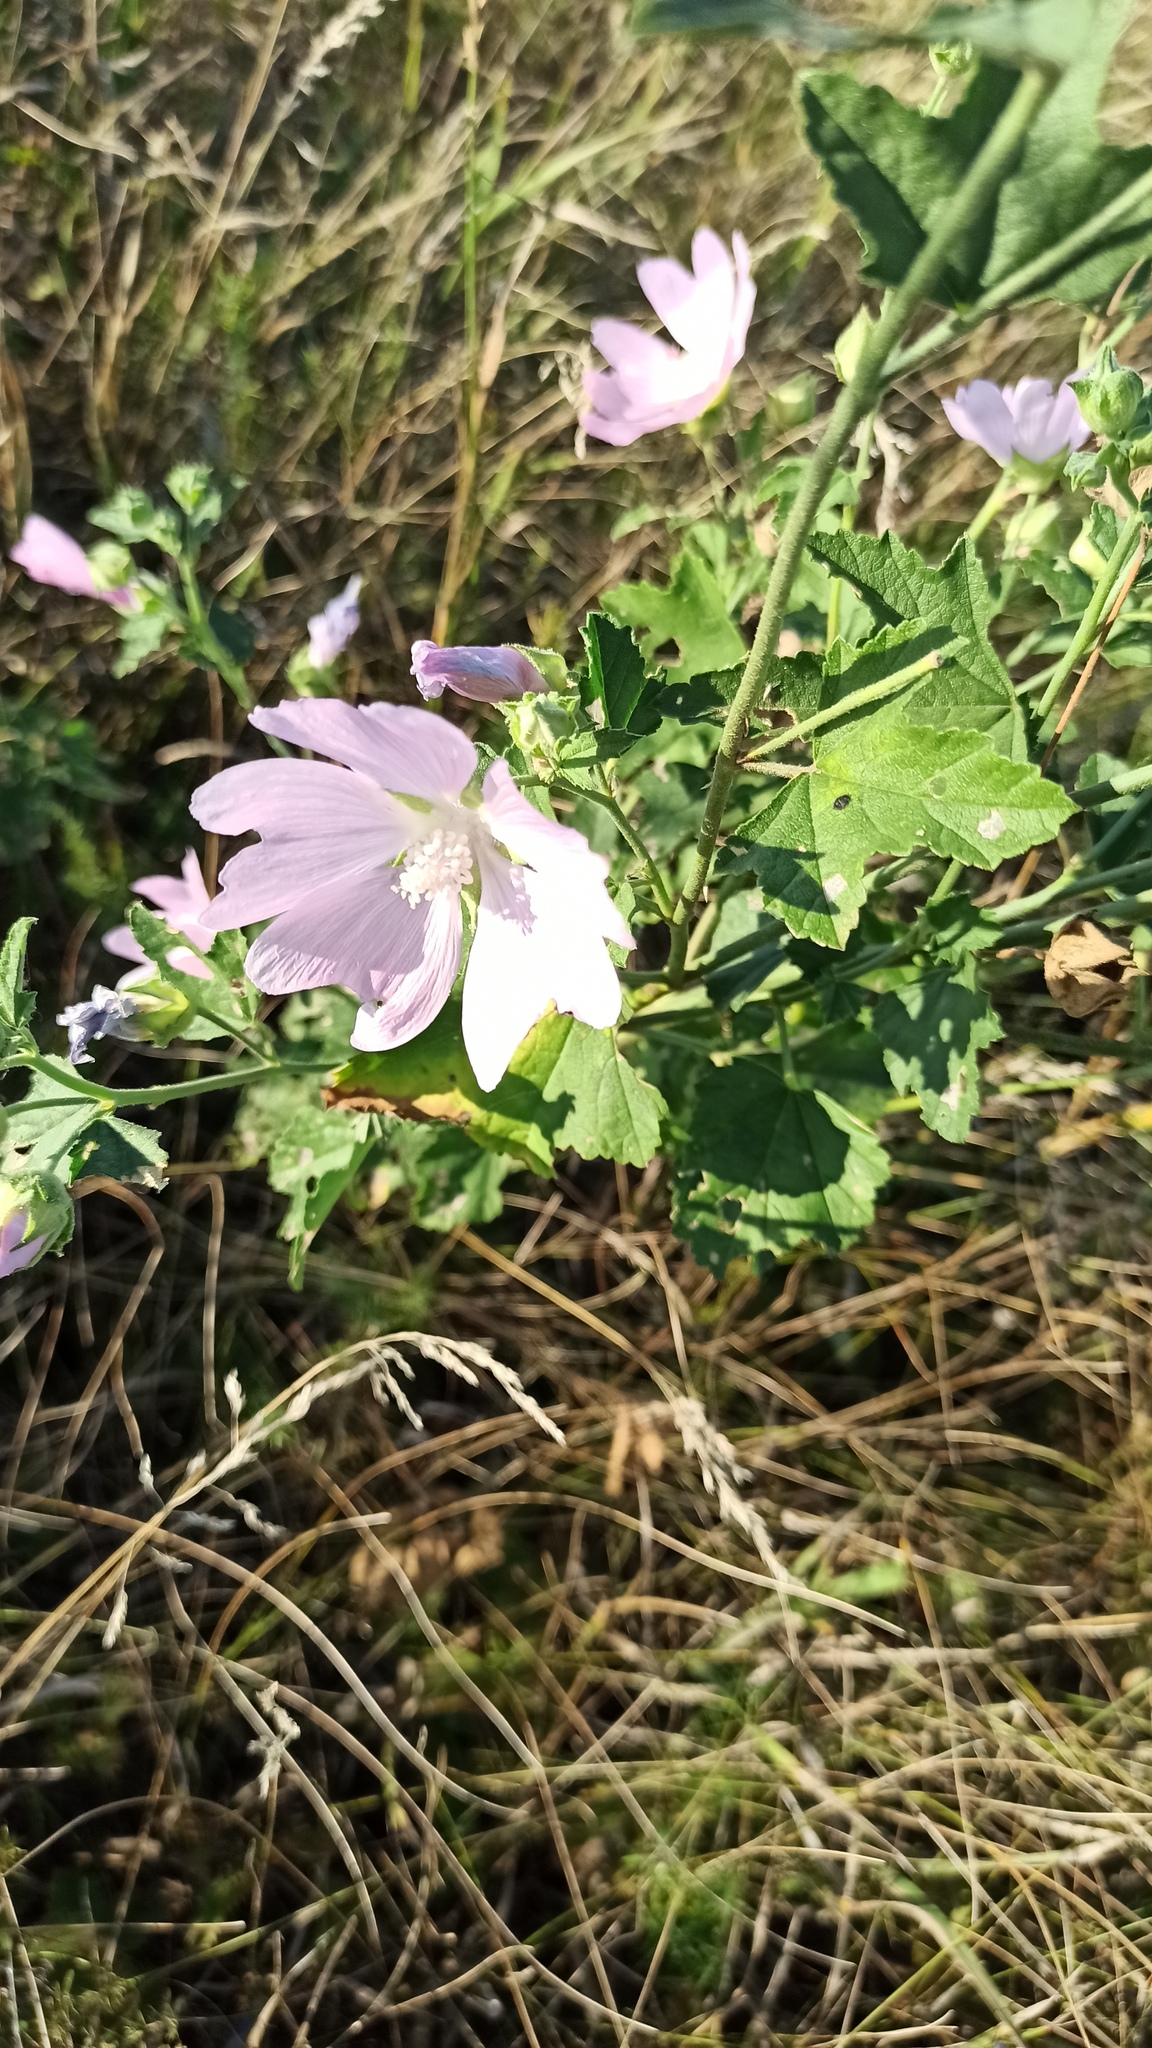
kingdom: Plantae
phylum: Tracheophyta
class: Magnoliopsida
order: Malvales
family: Malvaceae
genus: Malva
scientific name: Malva thuringiaca
